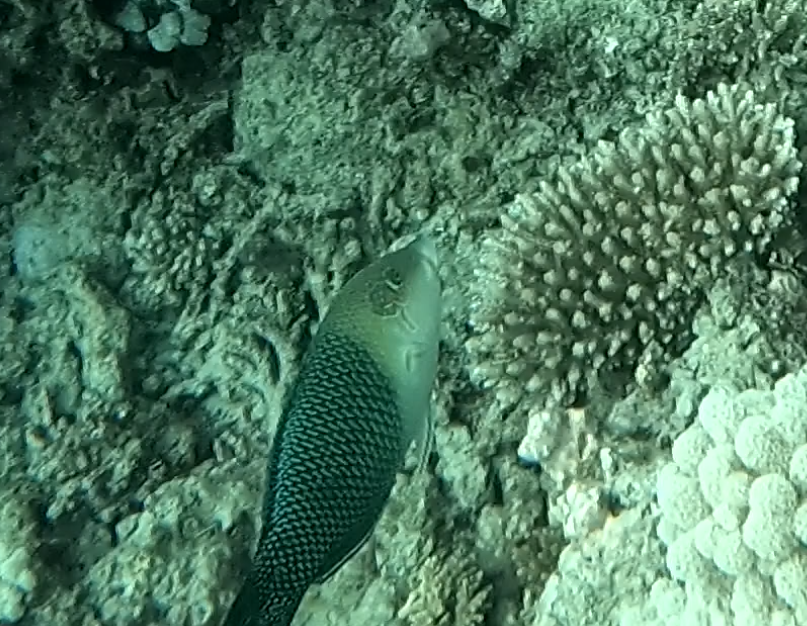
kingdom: Animalia
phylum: Chordata
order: Perciformes
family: Labridae
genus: Hemigymnus
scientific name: Hemigymnus melapterus
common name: Blackeye thicklip
